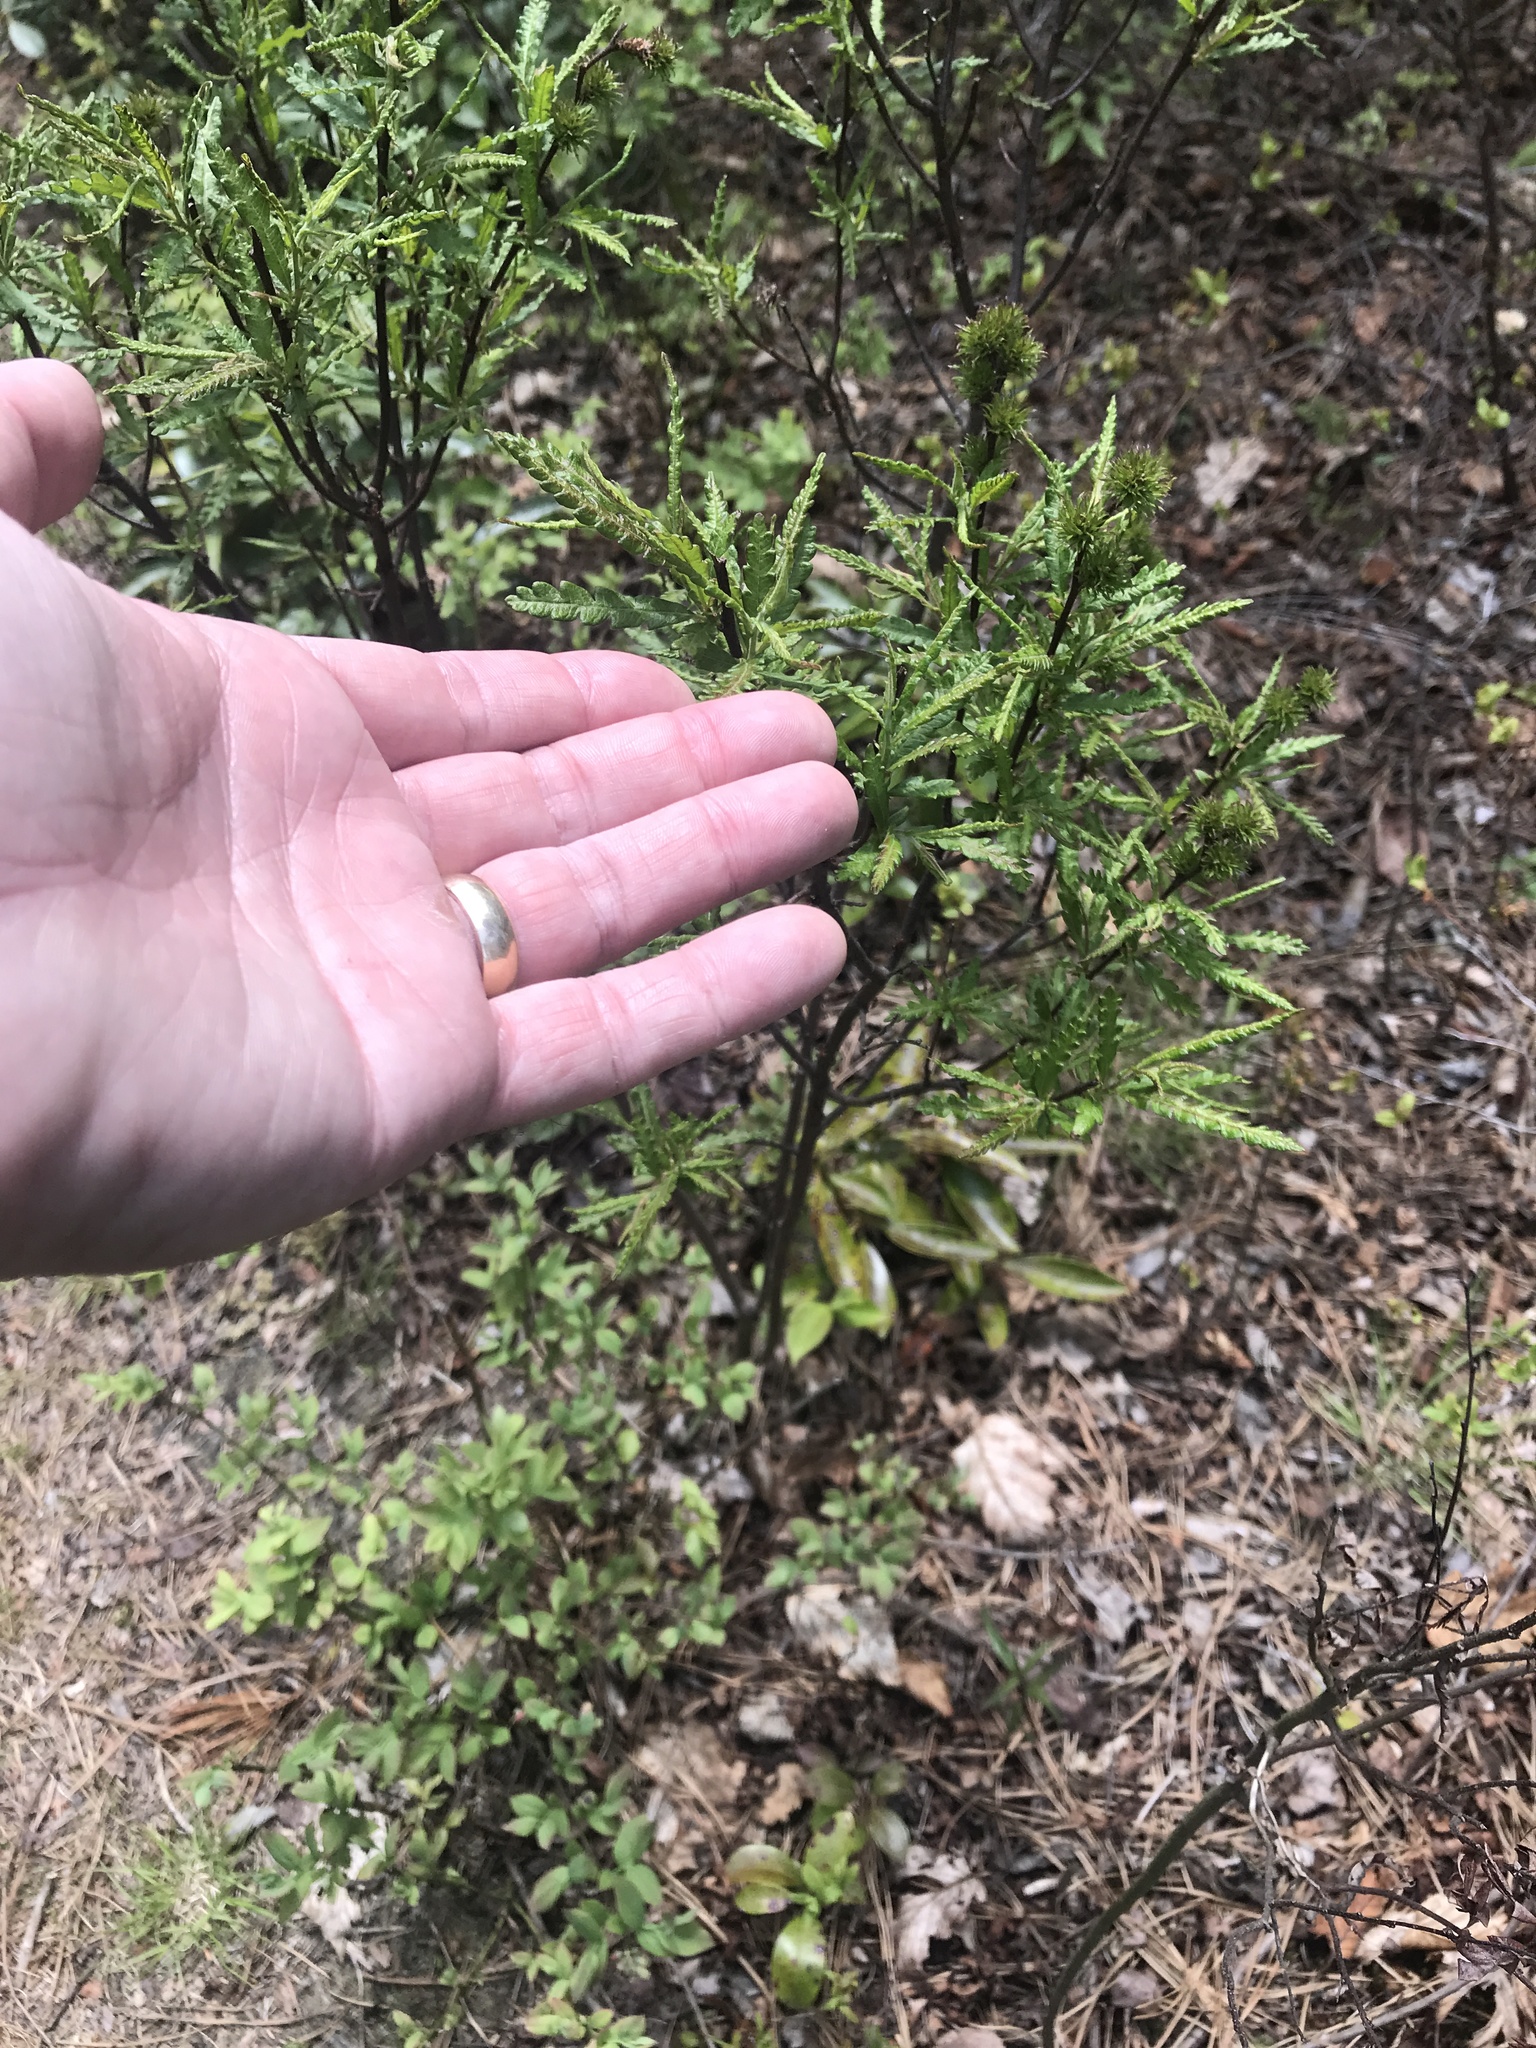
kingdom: Plantae
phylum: Tracheophyta
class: Magnoliopsida
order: Fagales
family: Myricaceae
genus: Comptonia
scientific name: Comptonia peregrina
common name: Sweet-fern
